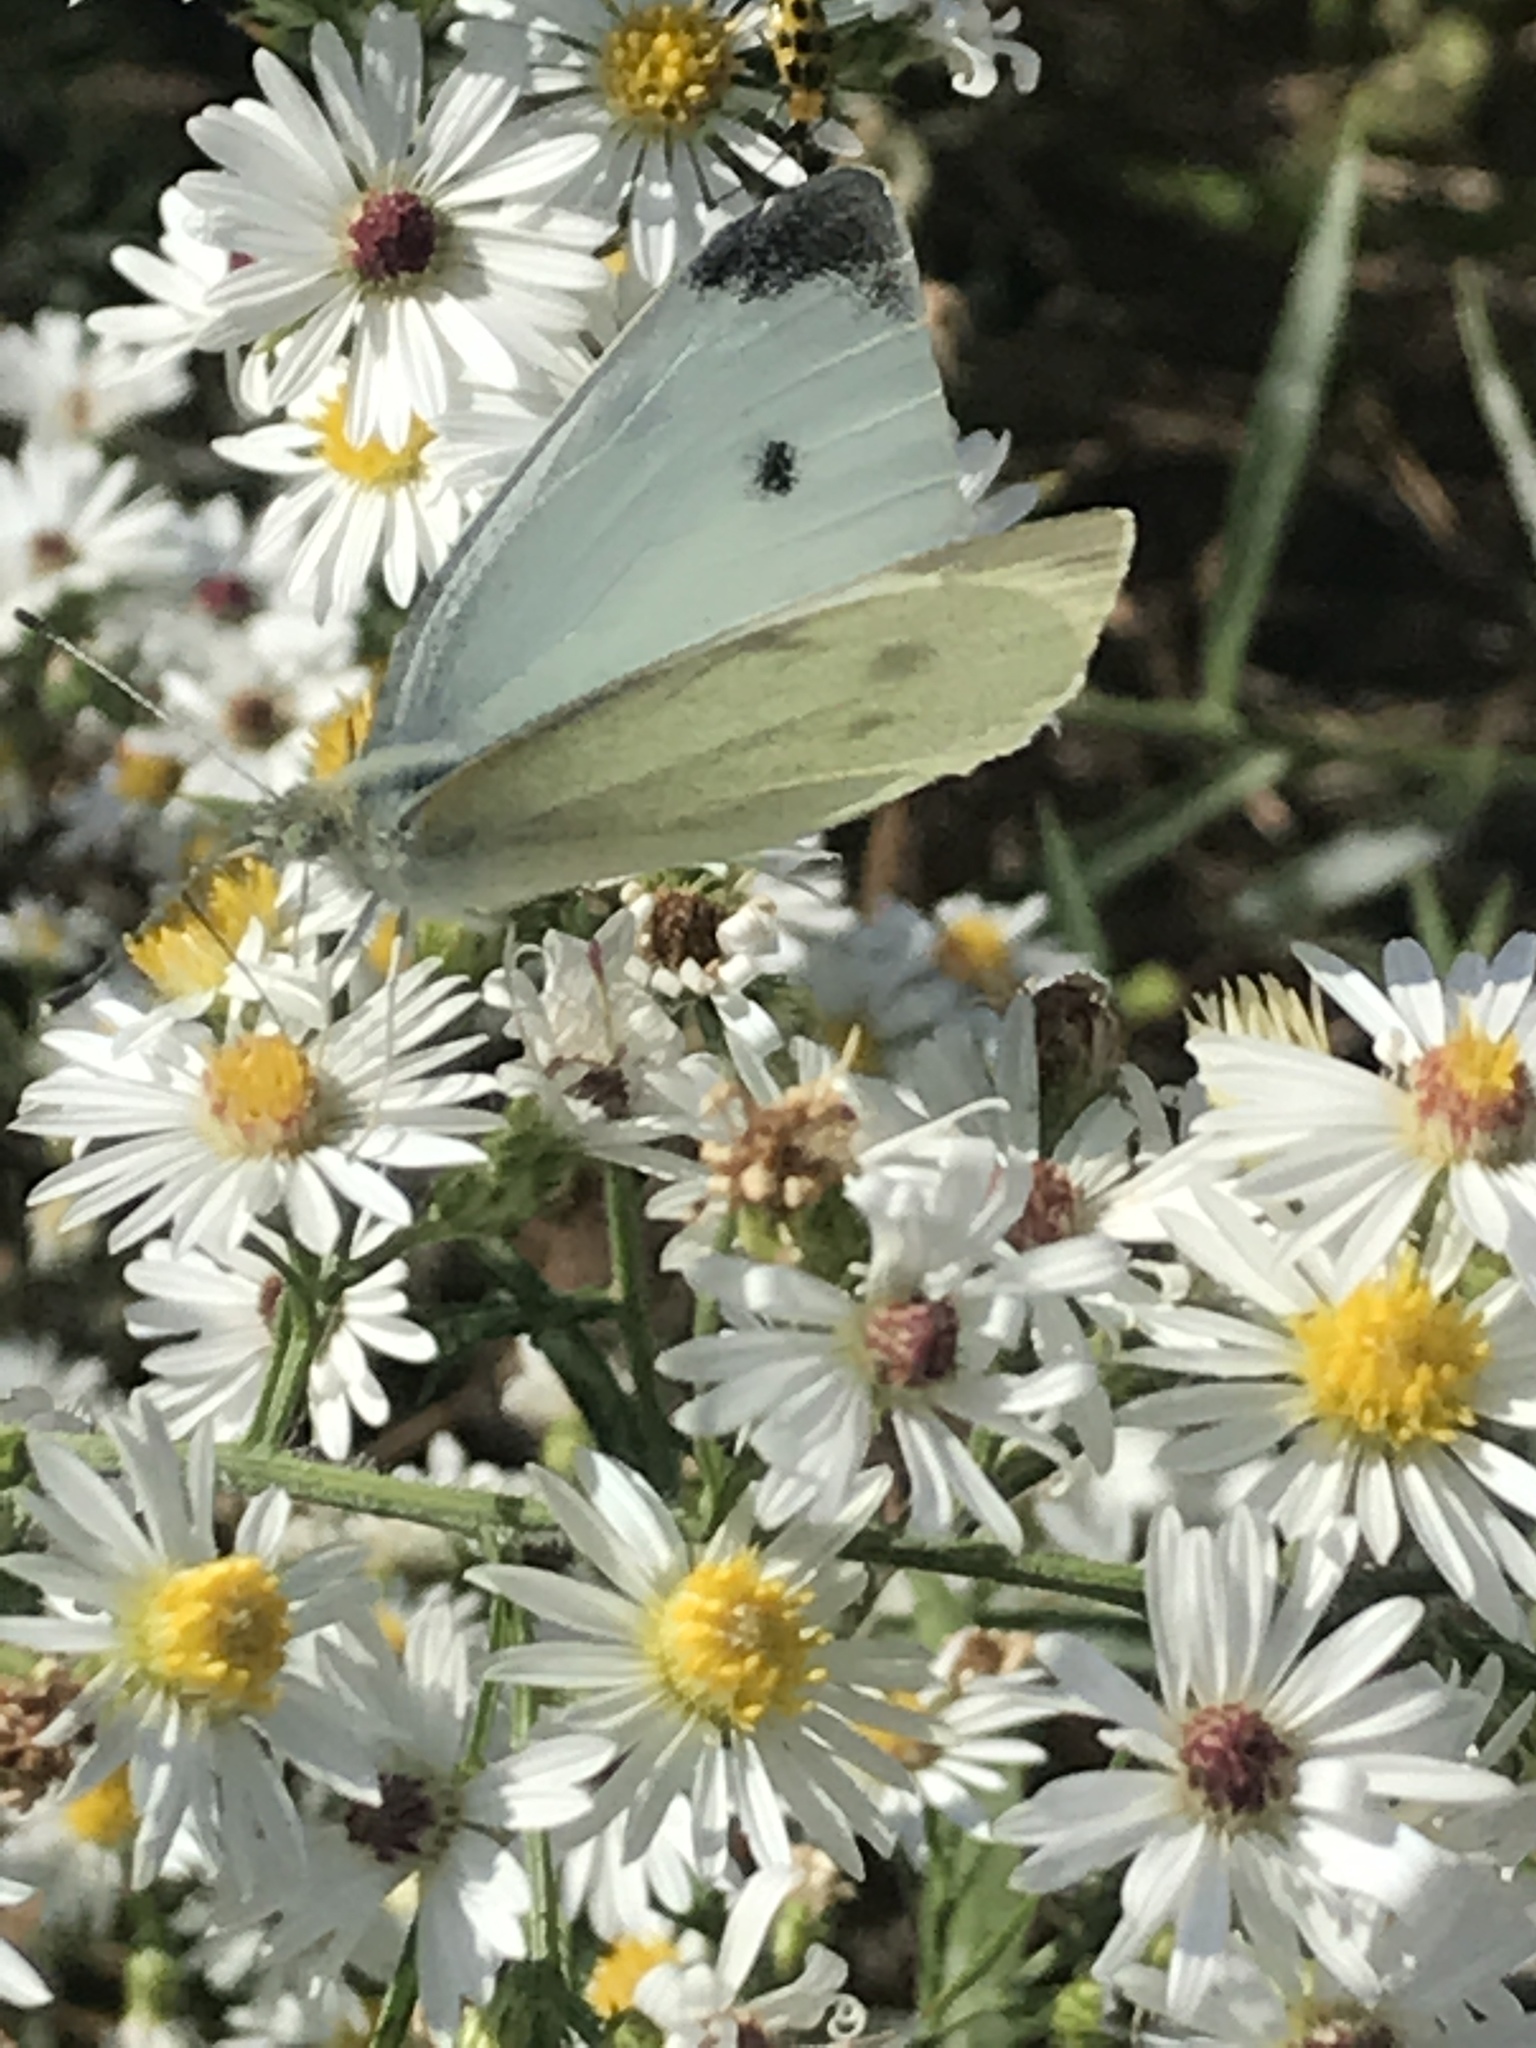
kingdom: Animalia
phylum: Arthropoda
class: Insecta
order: Lepidoptera
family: Pieridae
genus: Pieris
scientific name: Pieris rapae
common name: Small white
